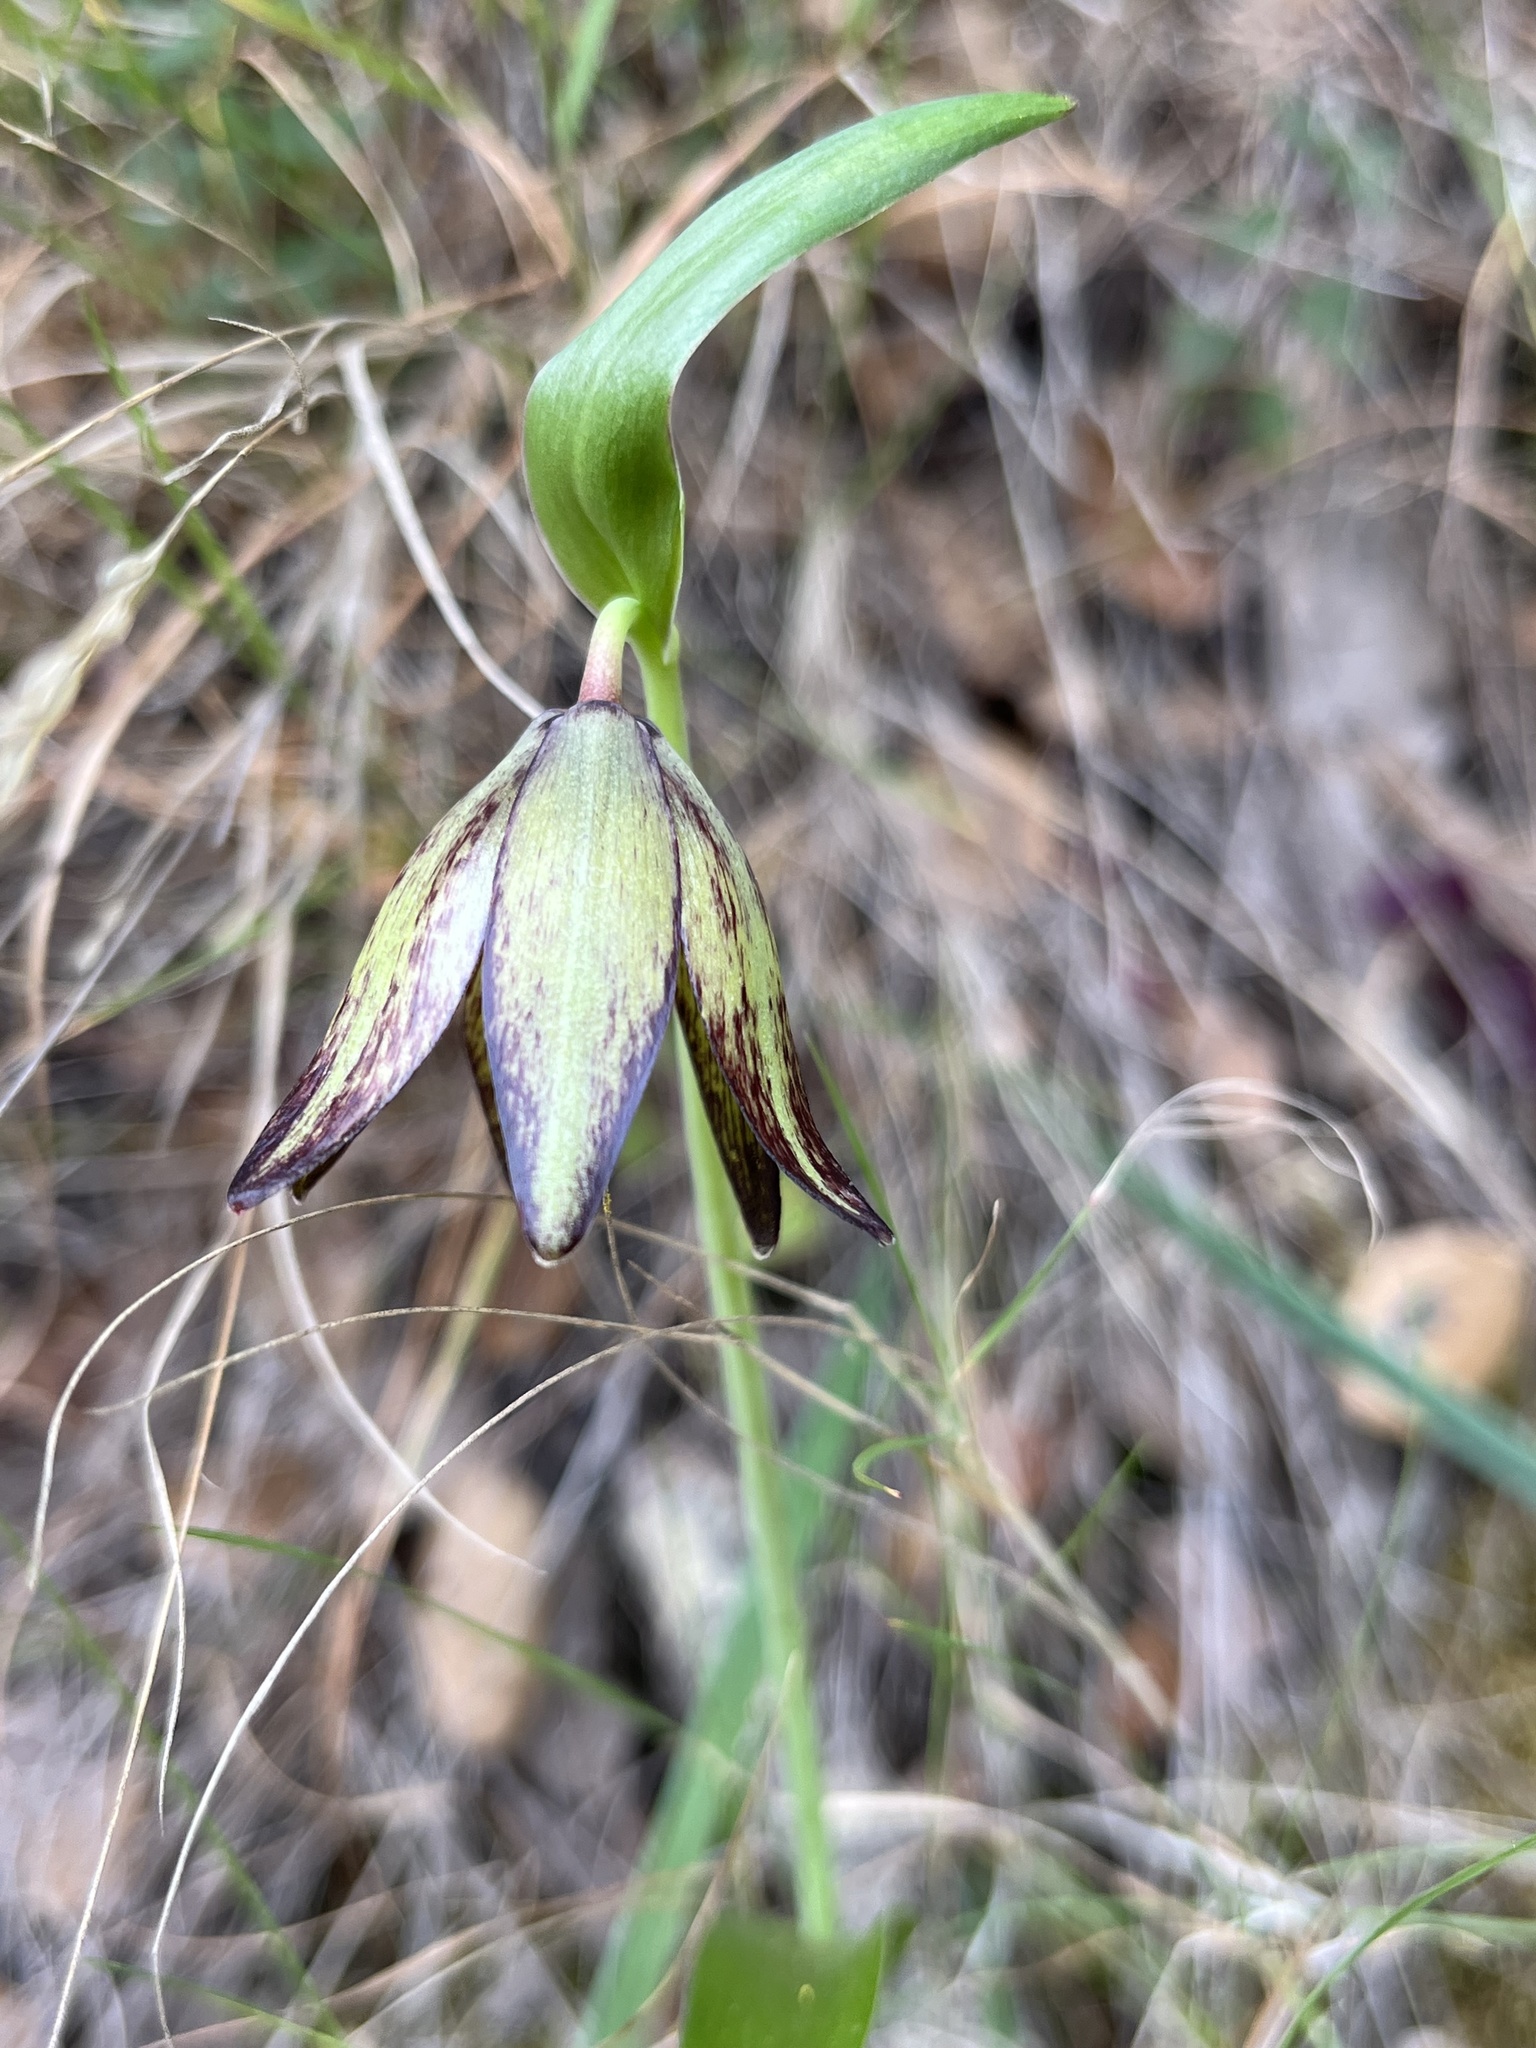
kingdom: Plantae
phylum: Tracheophyta
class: Liliopsida
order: Liliales
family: Liliaceae
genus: Fritillaria
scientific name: Fritillaria biflora
